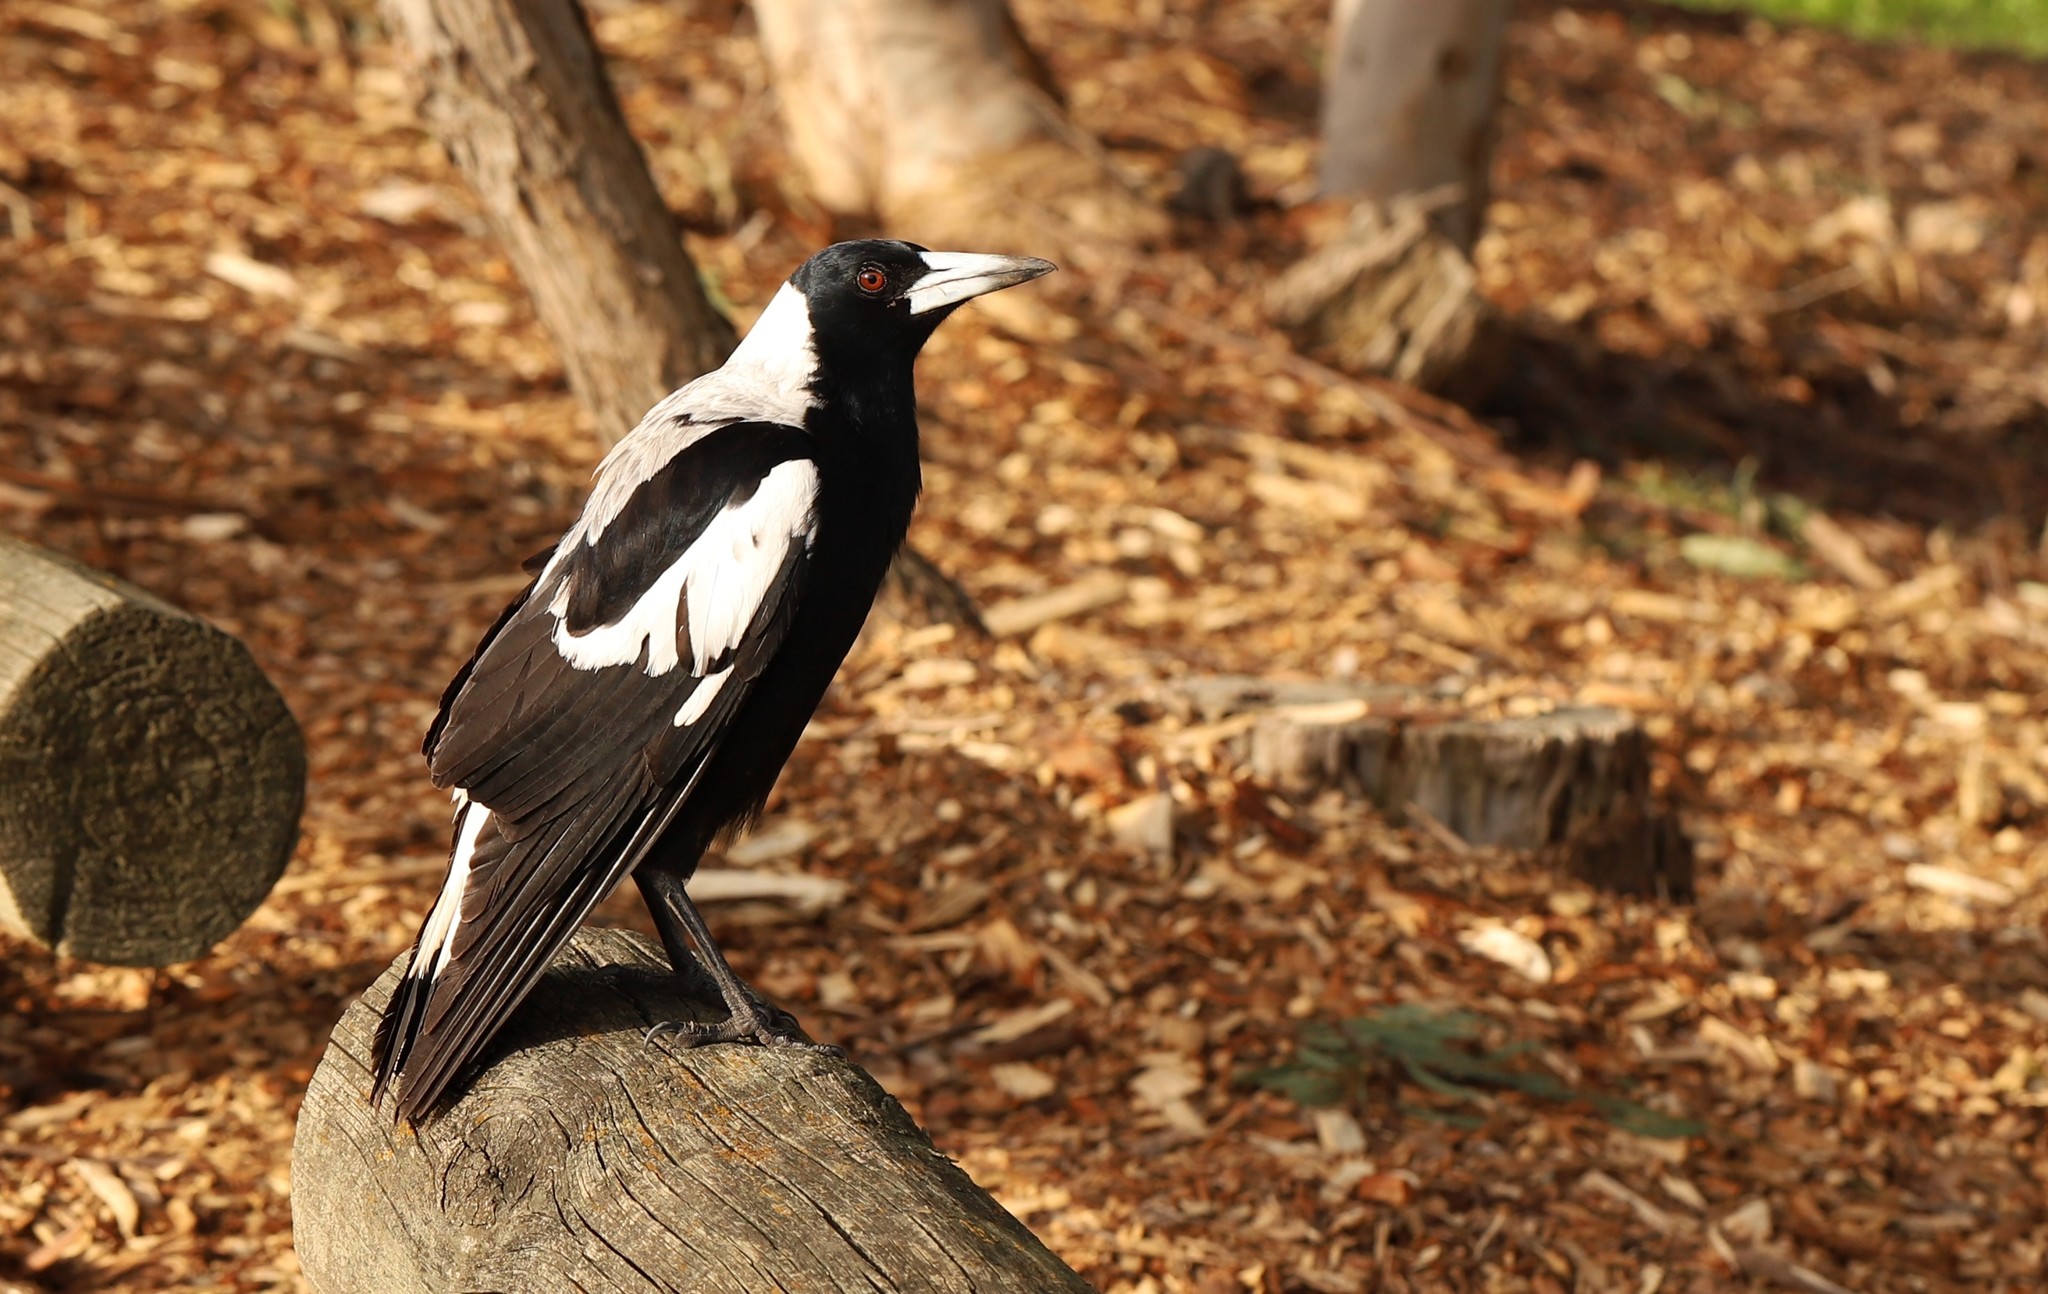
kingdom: Animalia
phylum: Chordata
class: Aves
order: Passeriformes
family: Cracticidae
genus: Gymnorhina
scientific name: Gymnorhina tibicen
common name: Australian magpie
